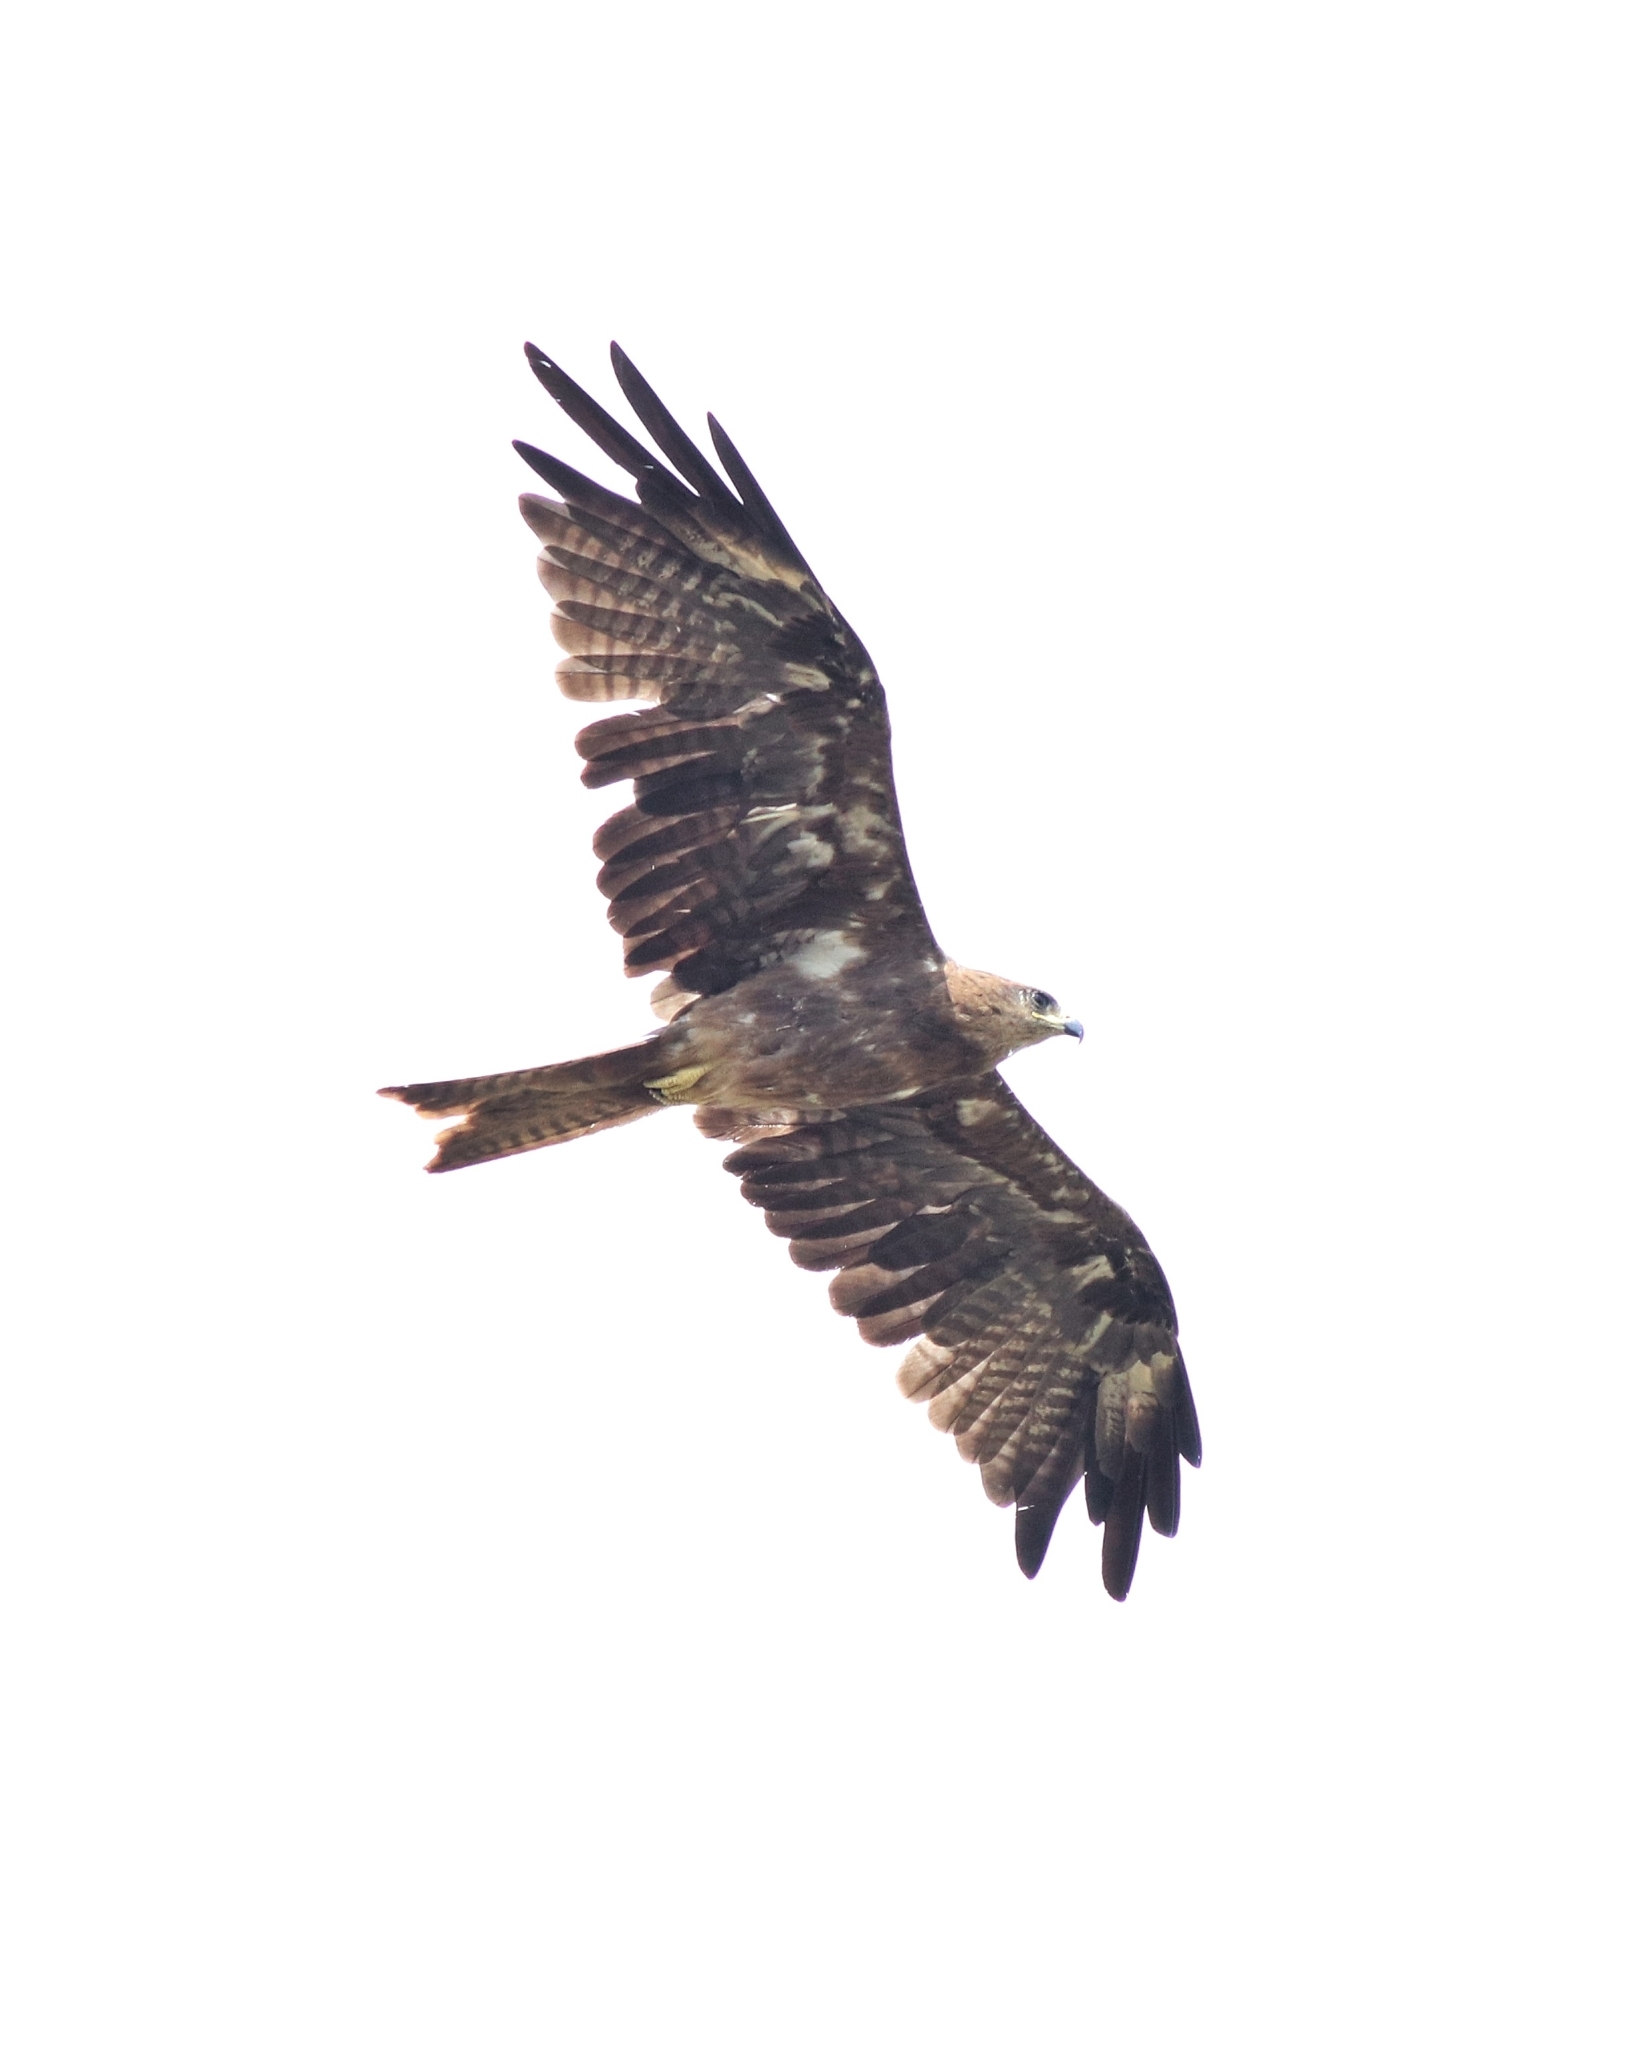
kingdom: Animalia
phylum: Chordata
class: Aves
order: Accipitriformes
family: Accipitridae
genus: Milvus
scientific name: Milvus migrans
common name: Black kite
